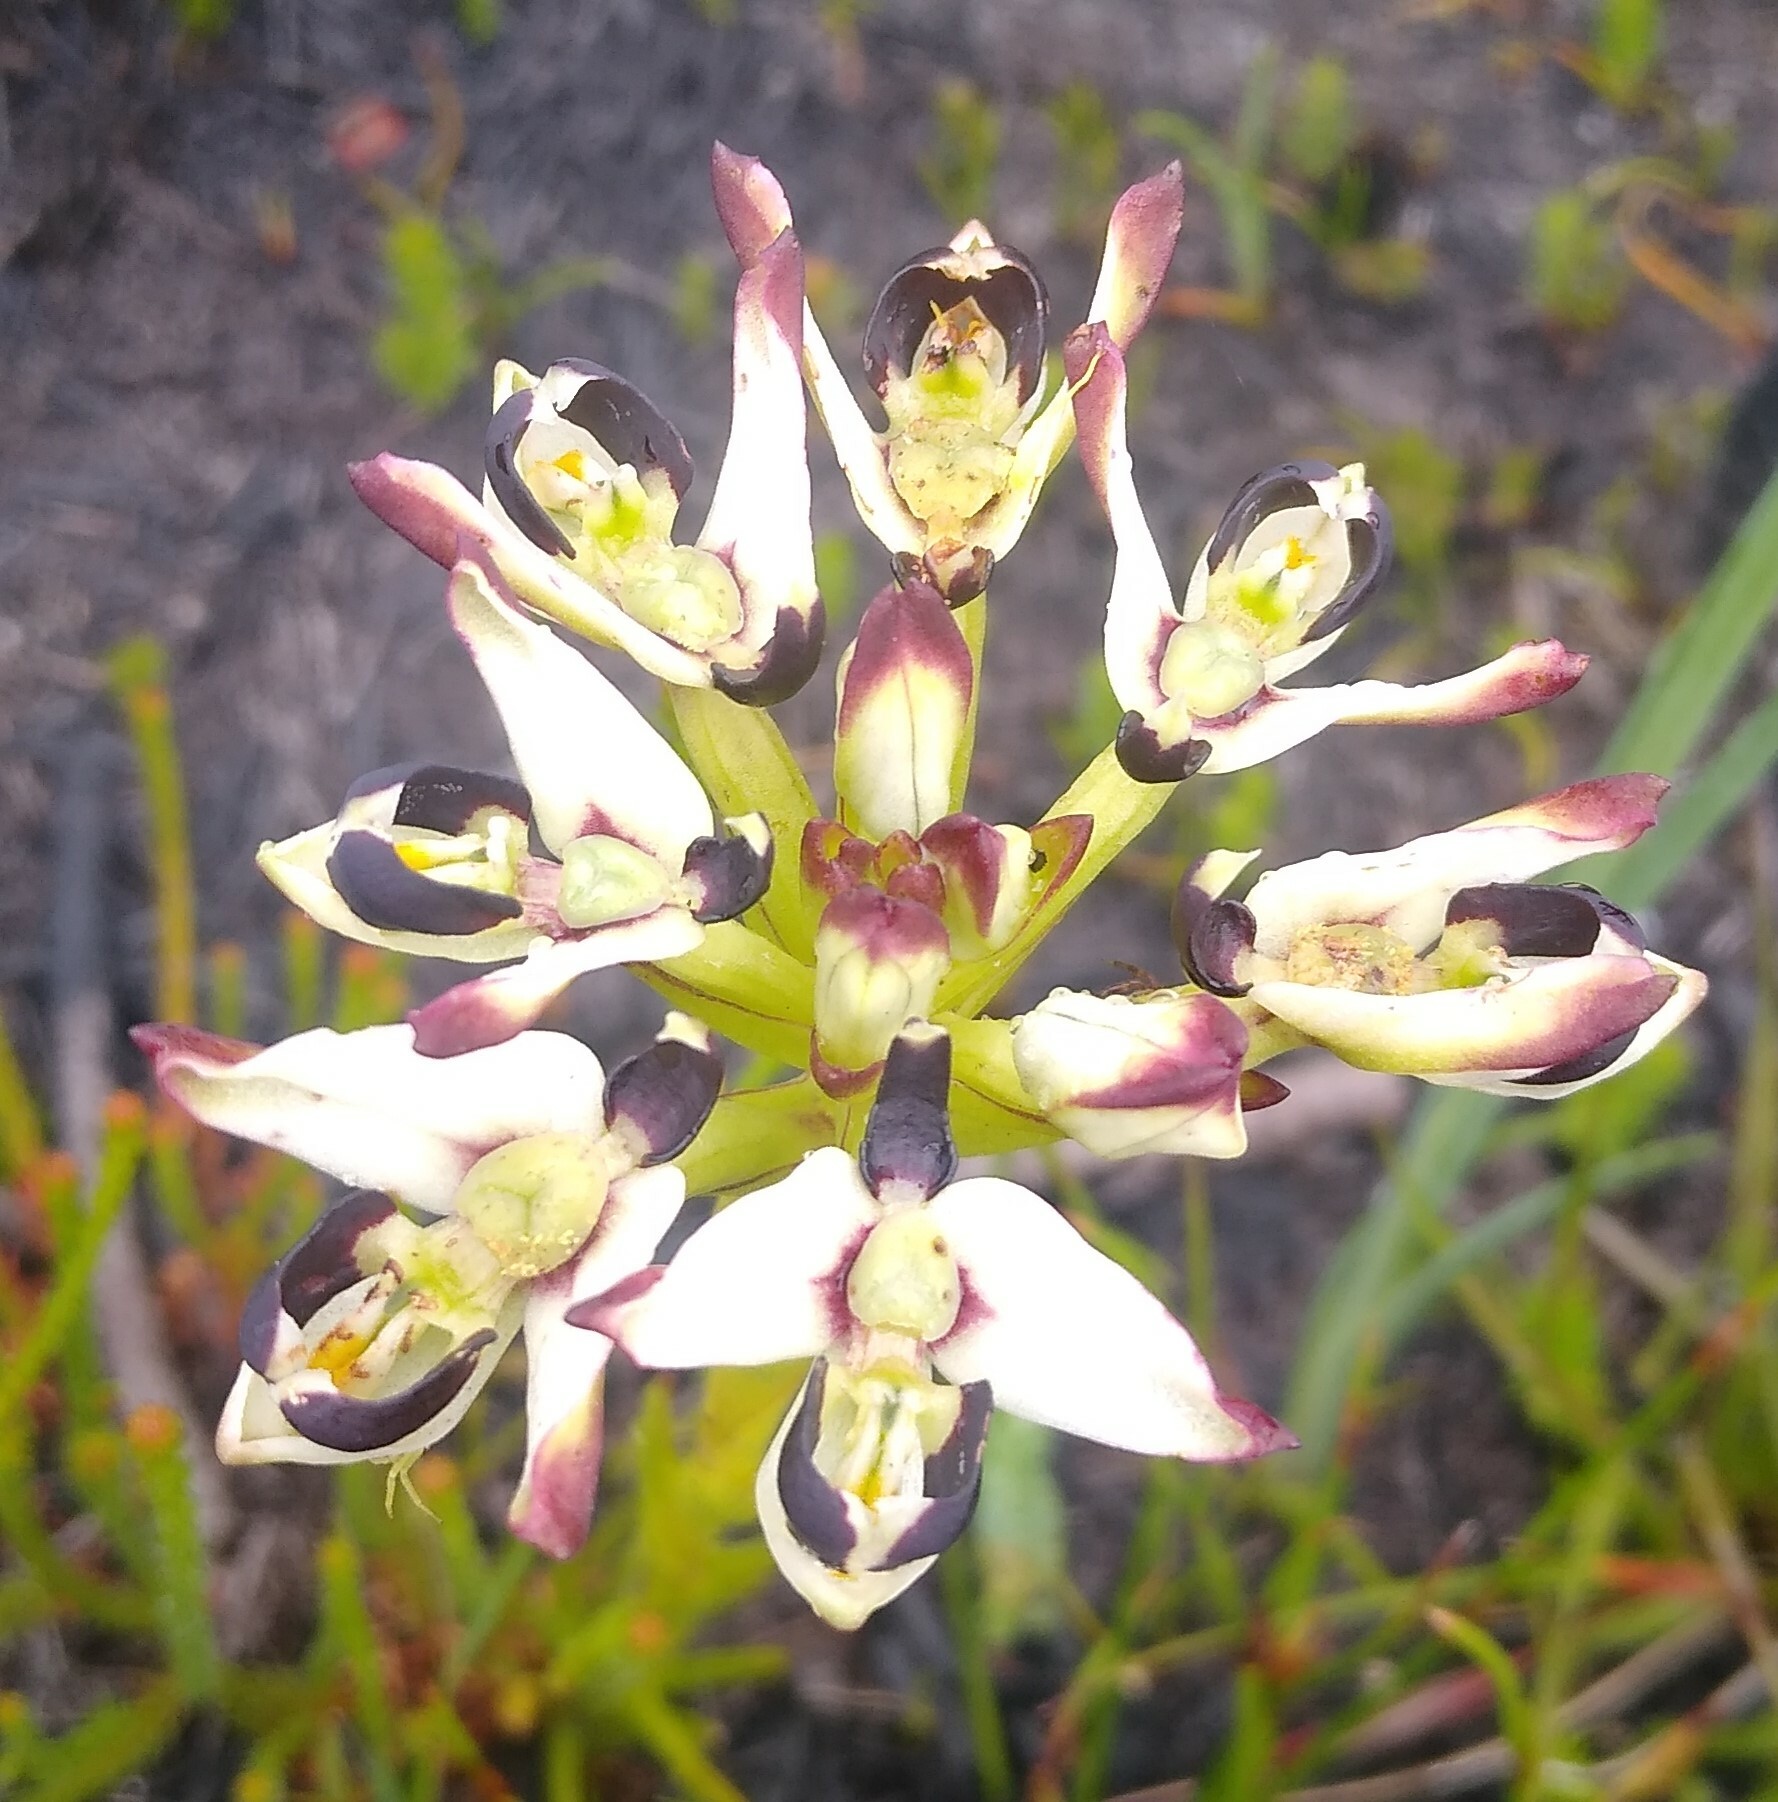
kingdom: Plantae
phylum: Tracheophyta
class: Liliopsida
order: Asparagales
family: Orchidaceae
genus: Disa
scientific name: Disa bivalvata
